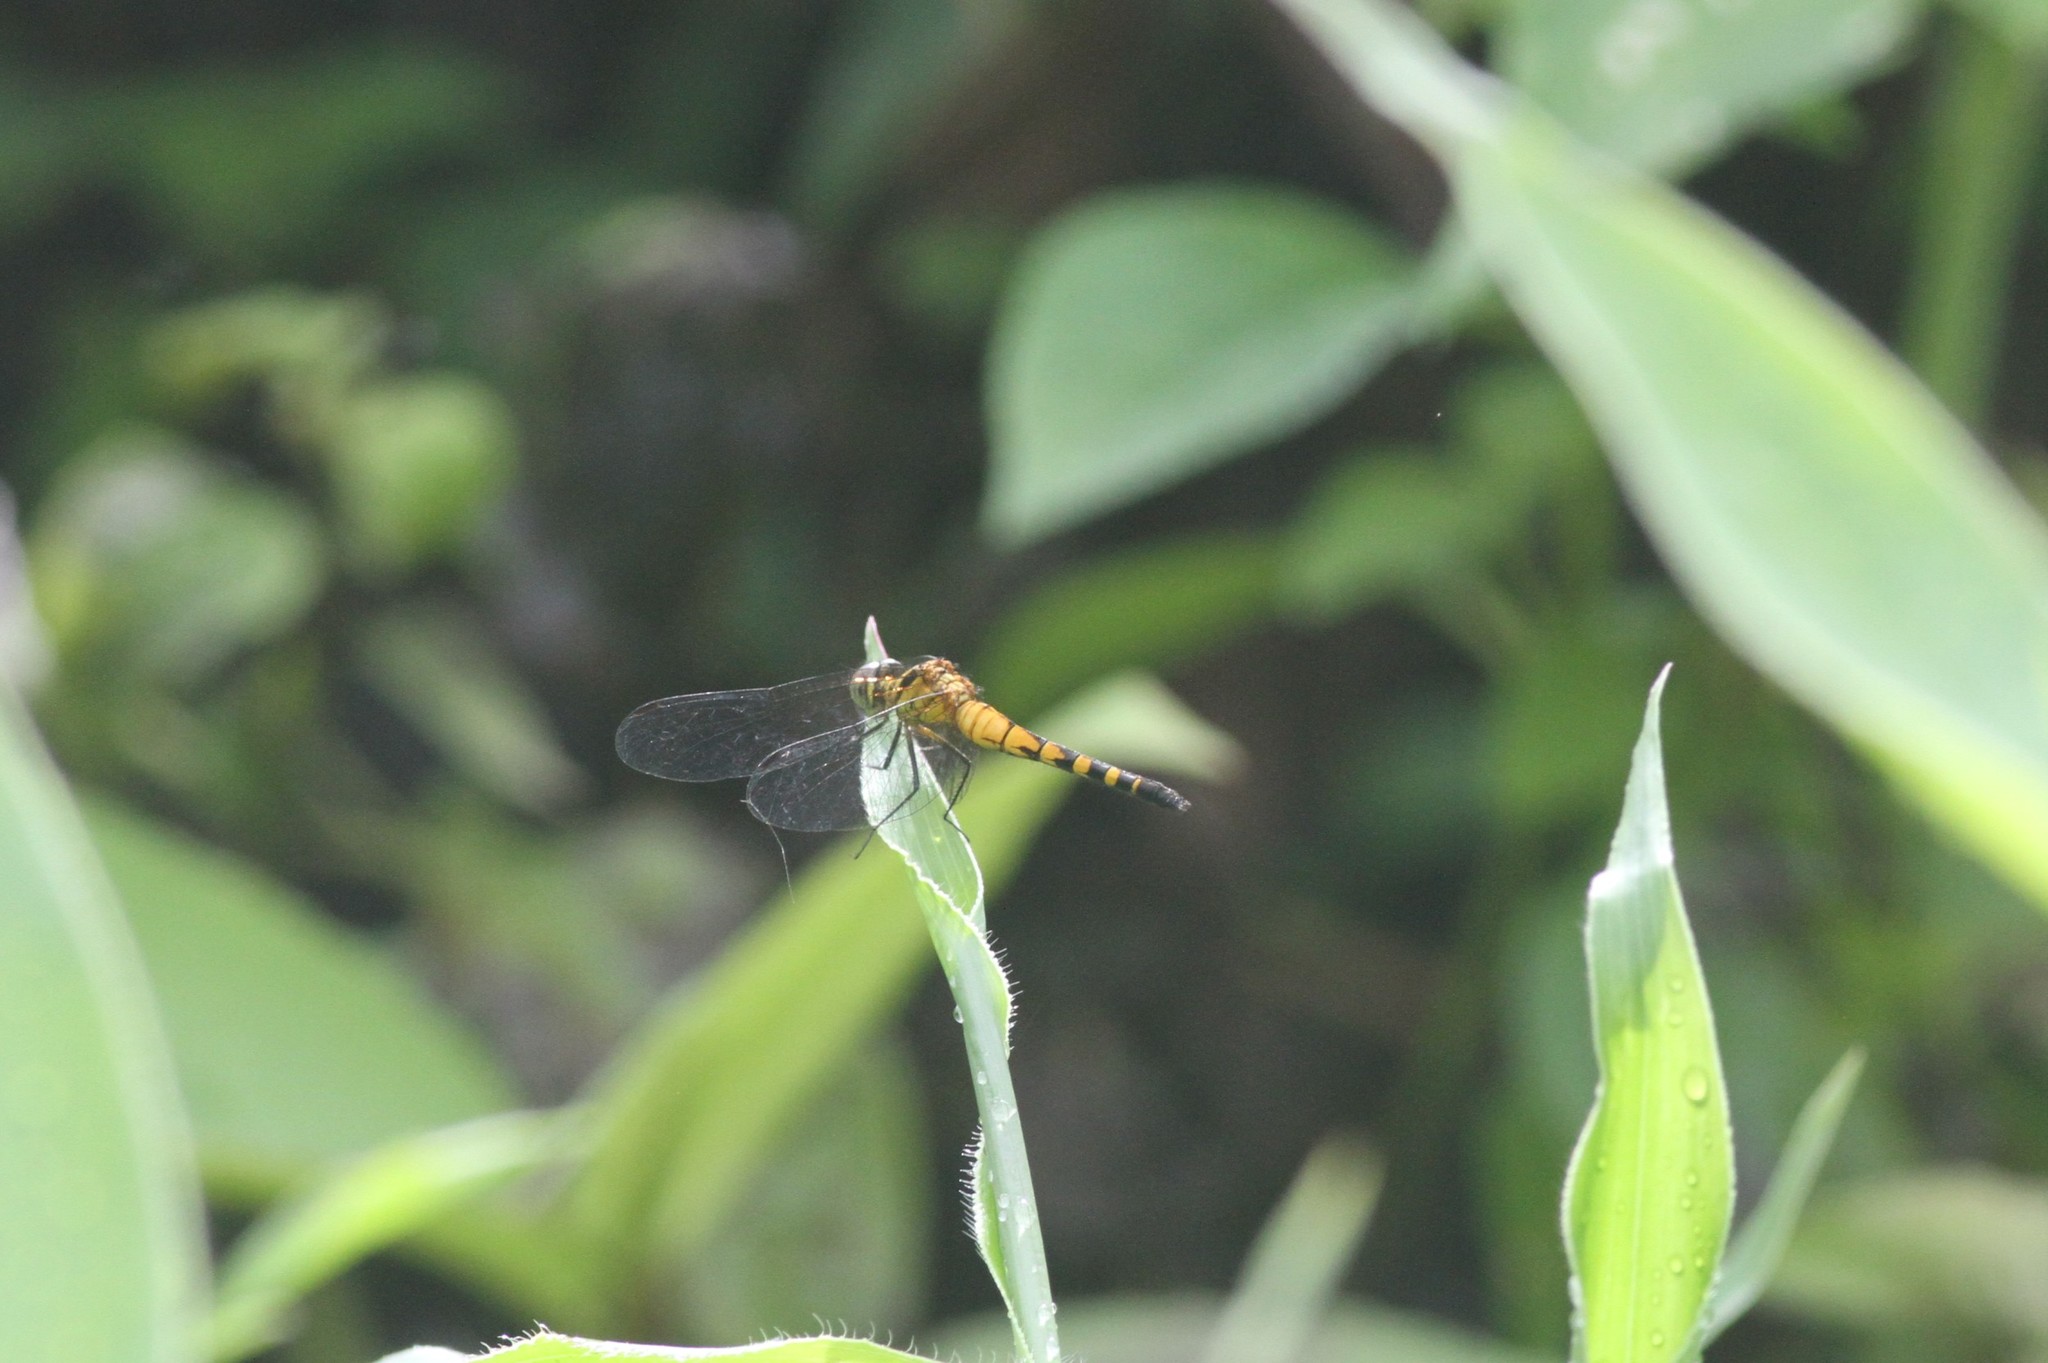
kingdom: Animalia
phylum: Arthropoda
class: Insecta
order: Odonata
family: Libellulidae
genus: Epithemis
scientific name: Epithemis mariae
